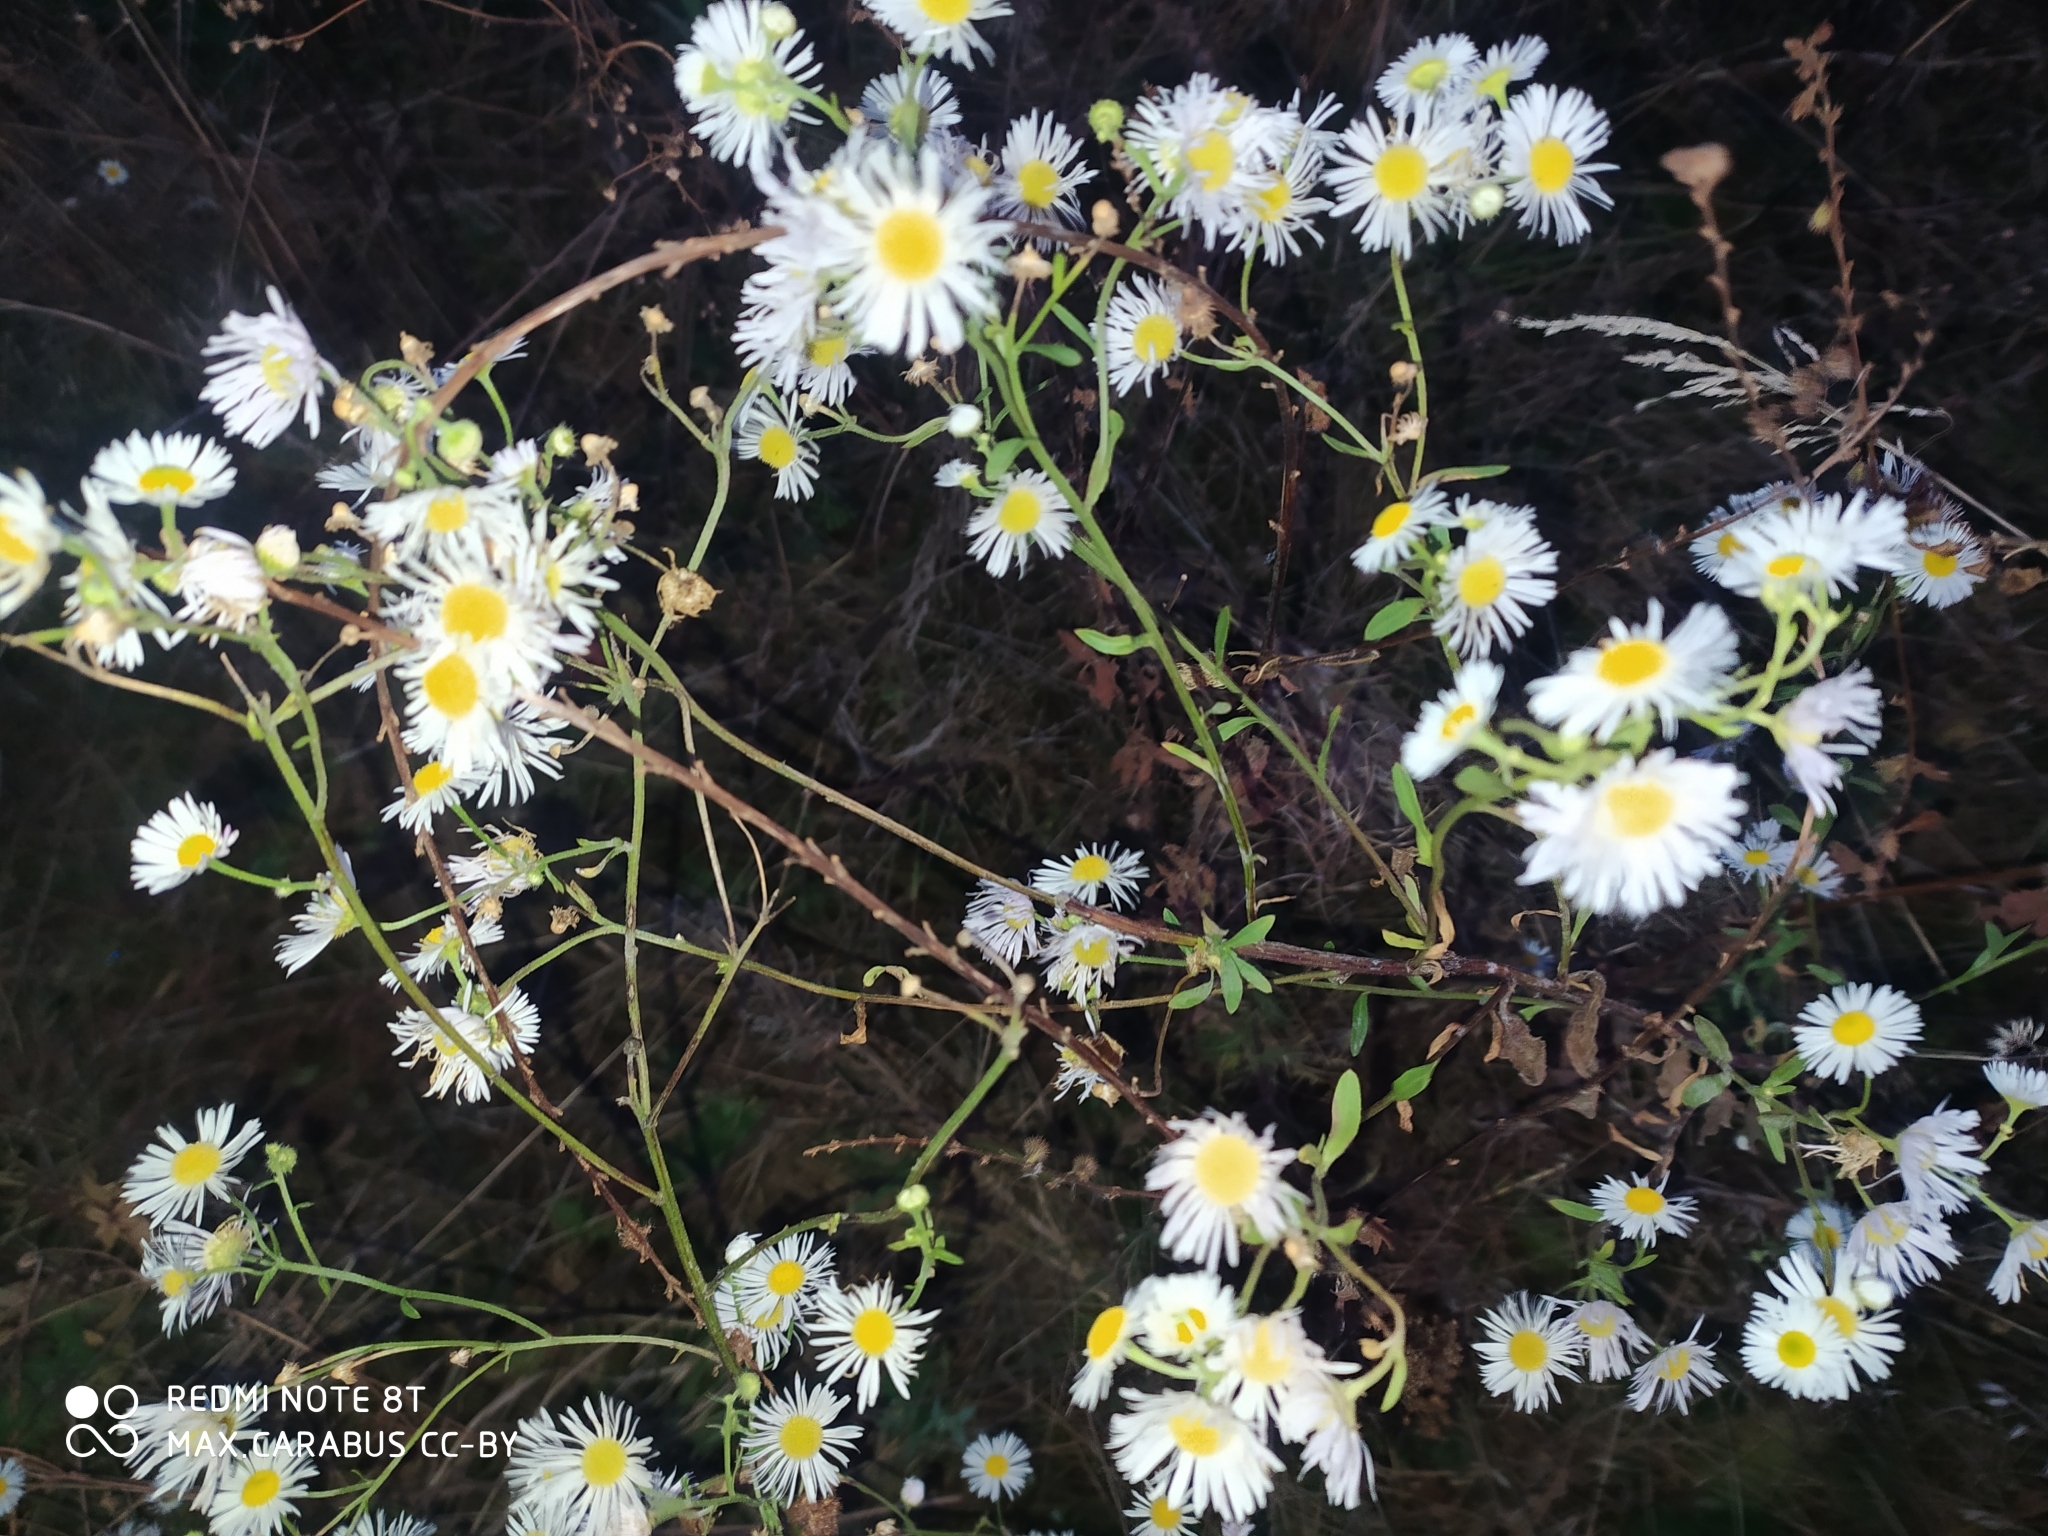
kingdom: Plantae
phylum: Tracheophyta
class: Magnoliopsida
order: Asterales
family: Asteraceae
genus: Erigeron
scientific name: Erigeron annuus
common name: Tall fleabane
